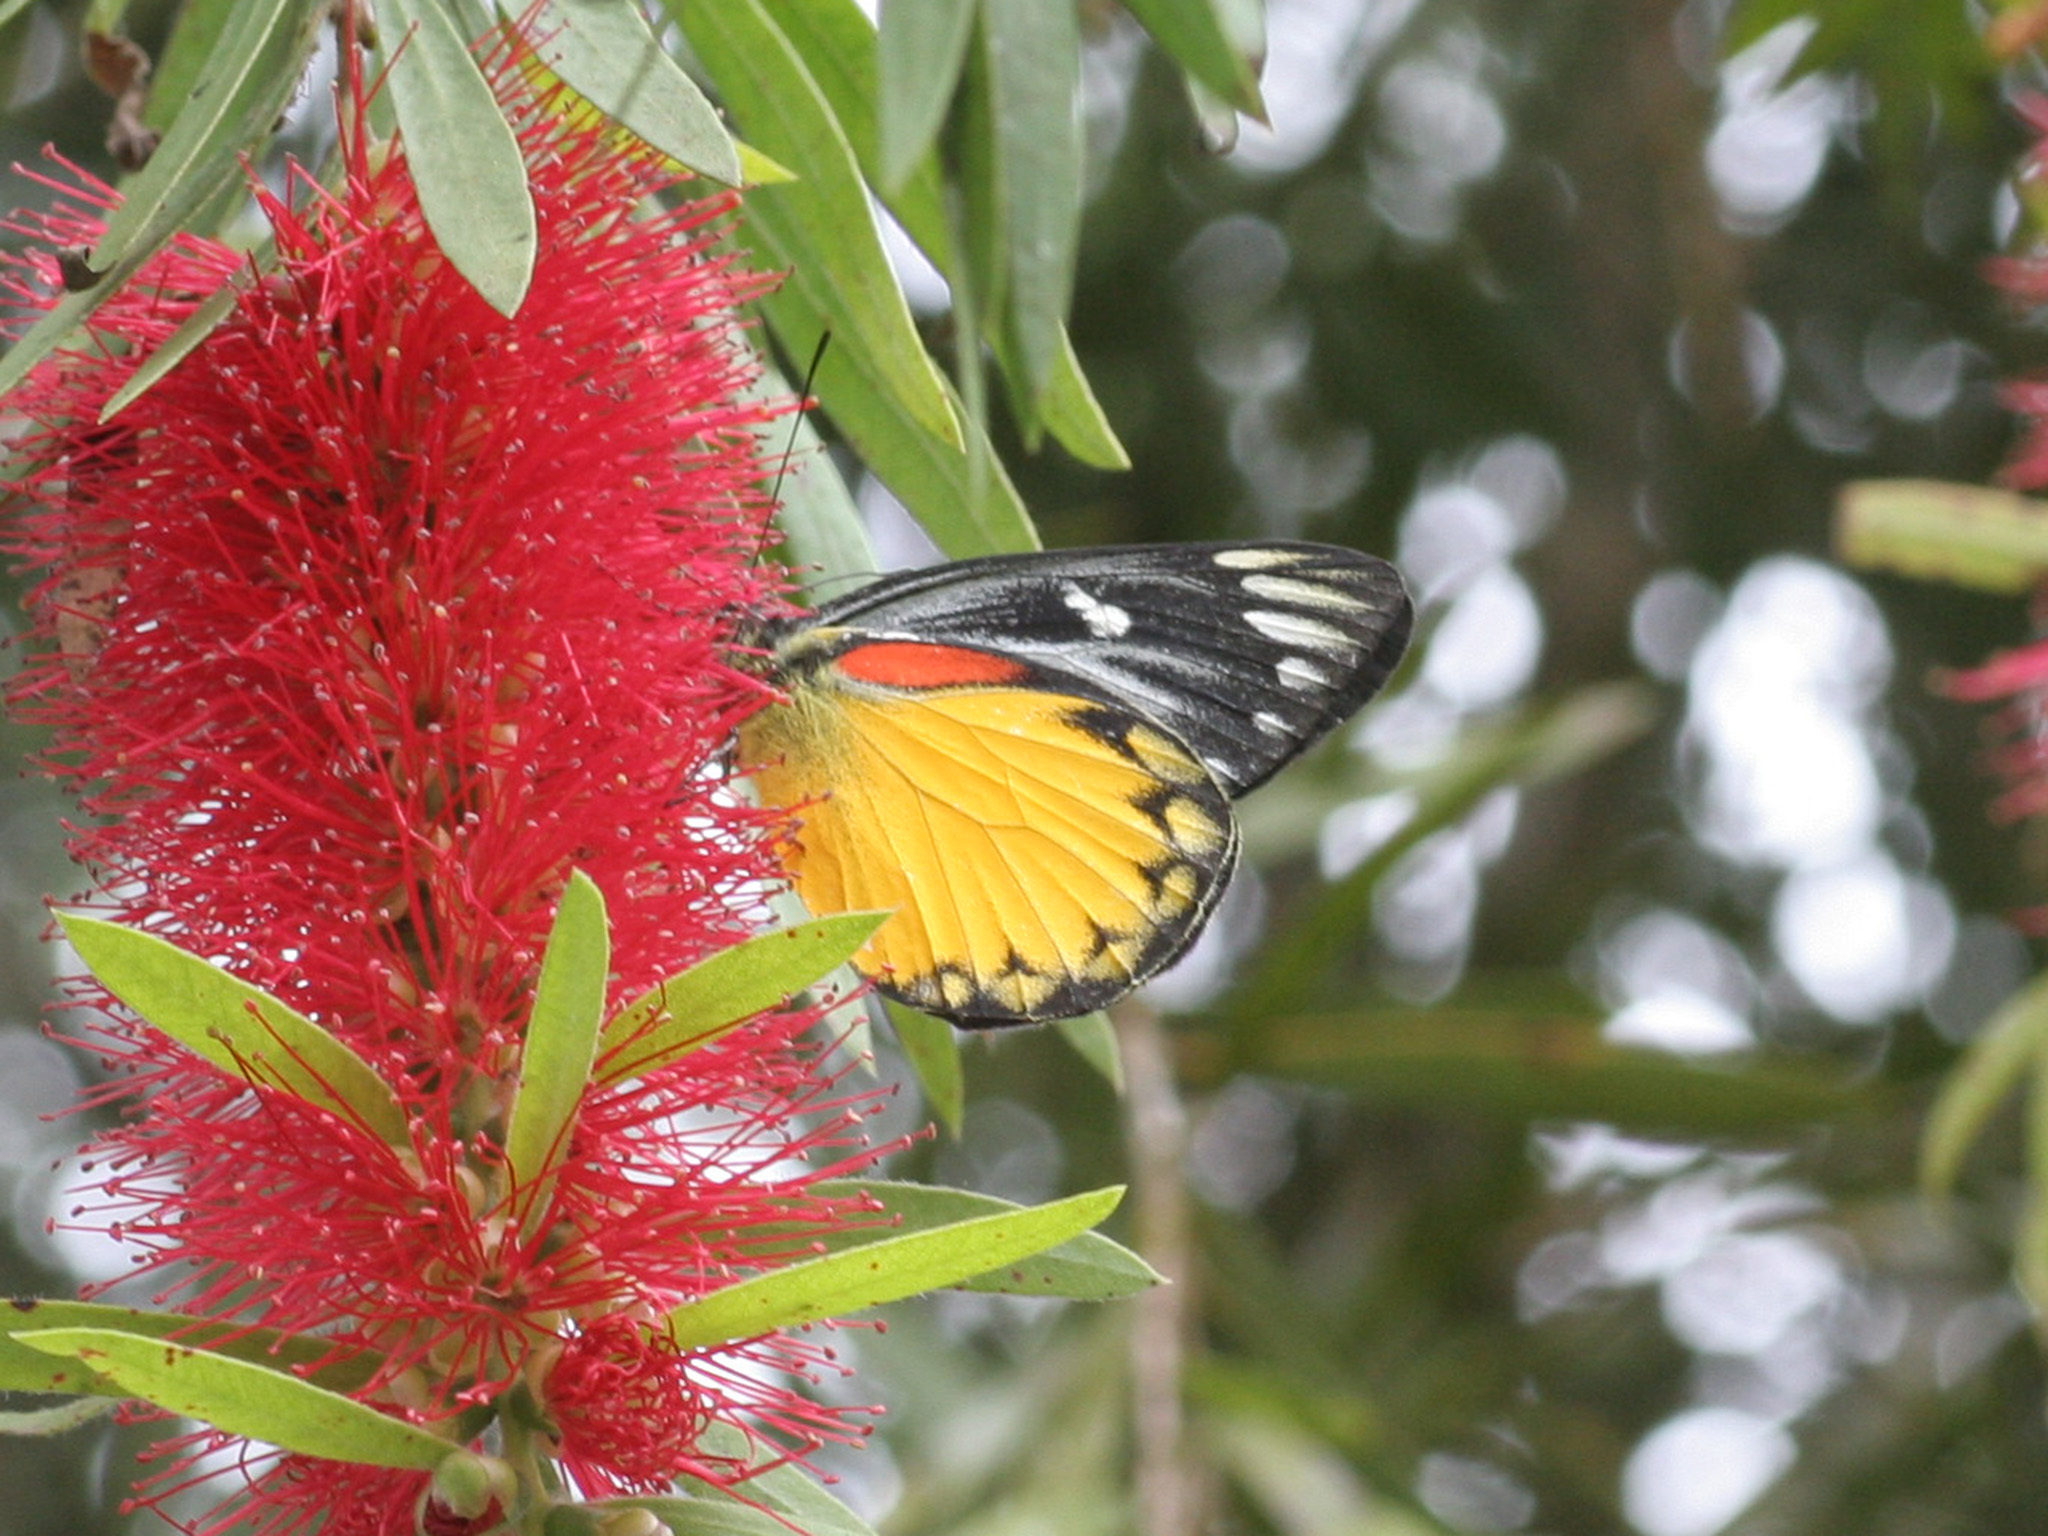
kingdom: Animalia
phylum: Arthropoda
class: Insecta
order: Lepidoptera
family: Pieridae
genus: Delias
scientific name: Delias descombesi
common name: Red-spot jezebel
